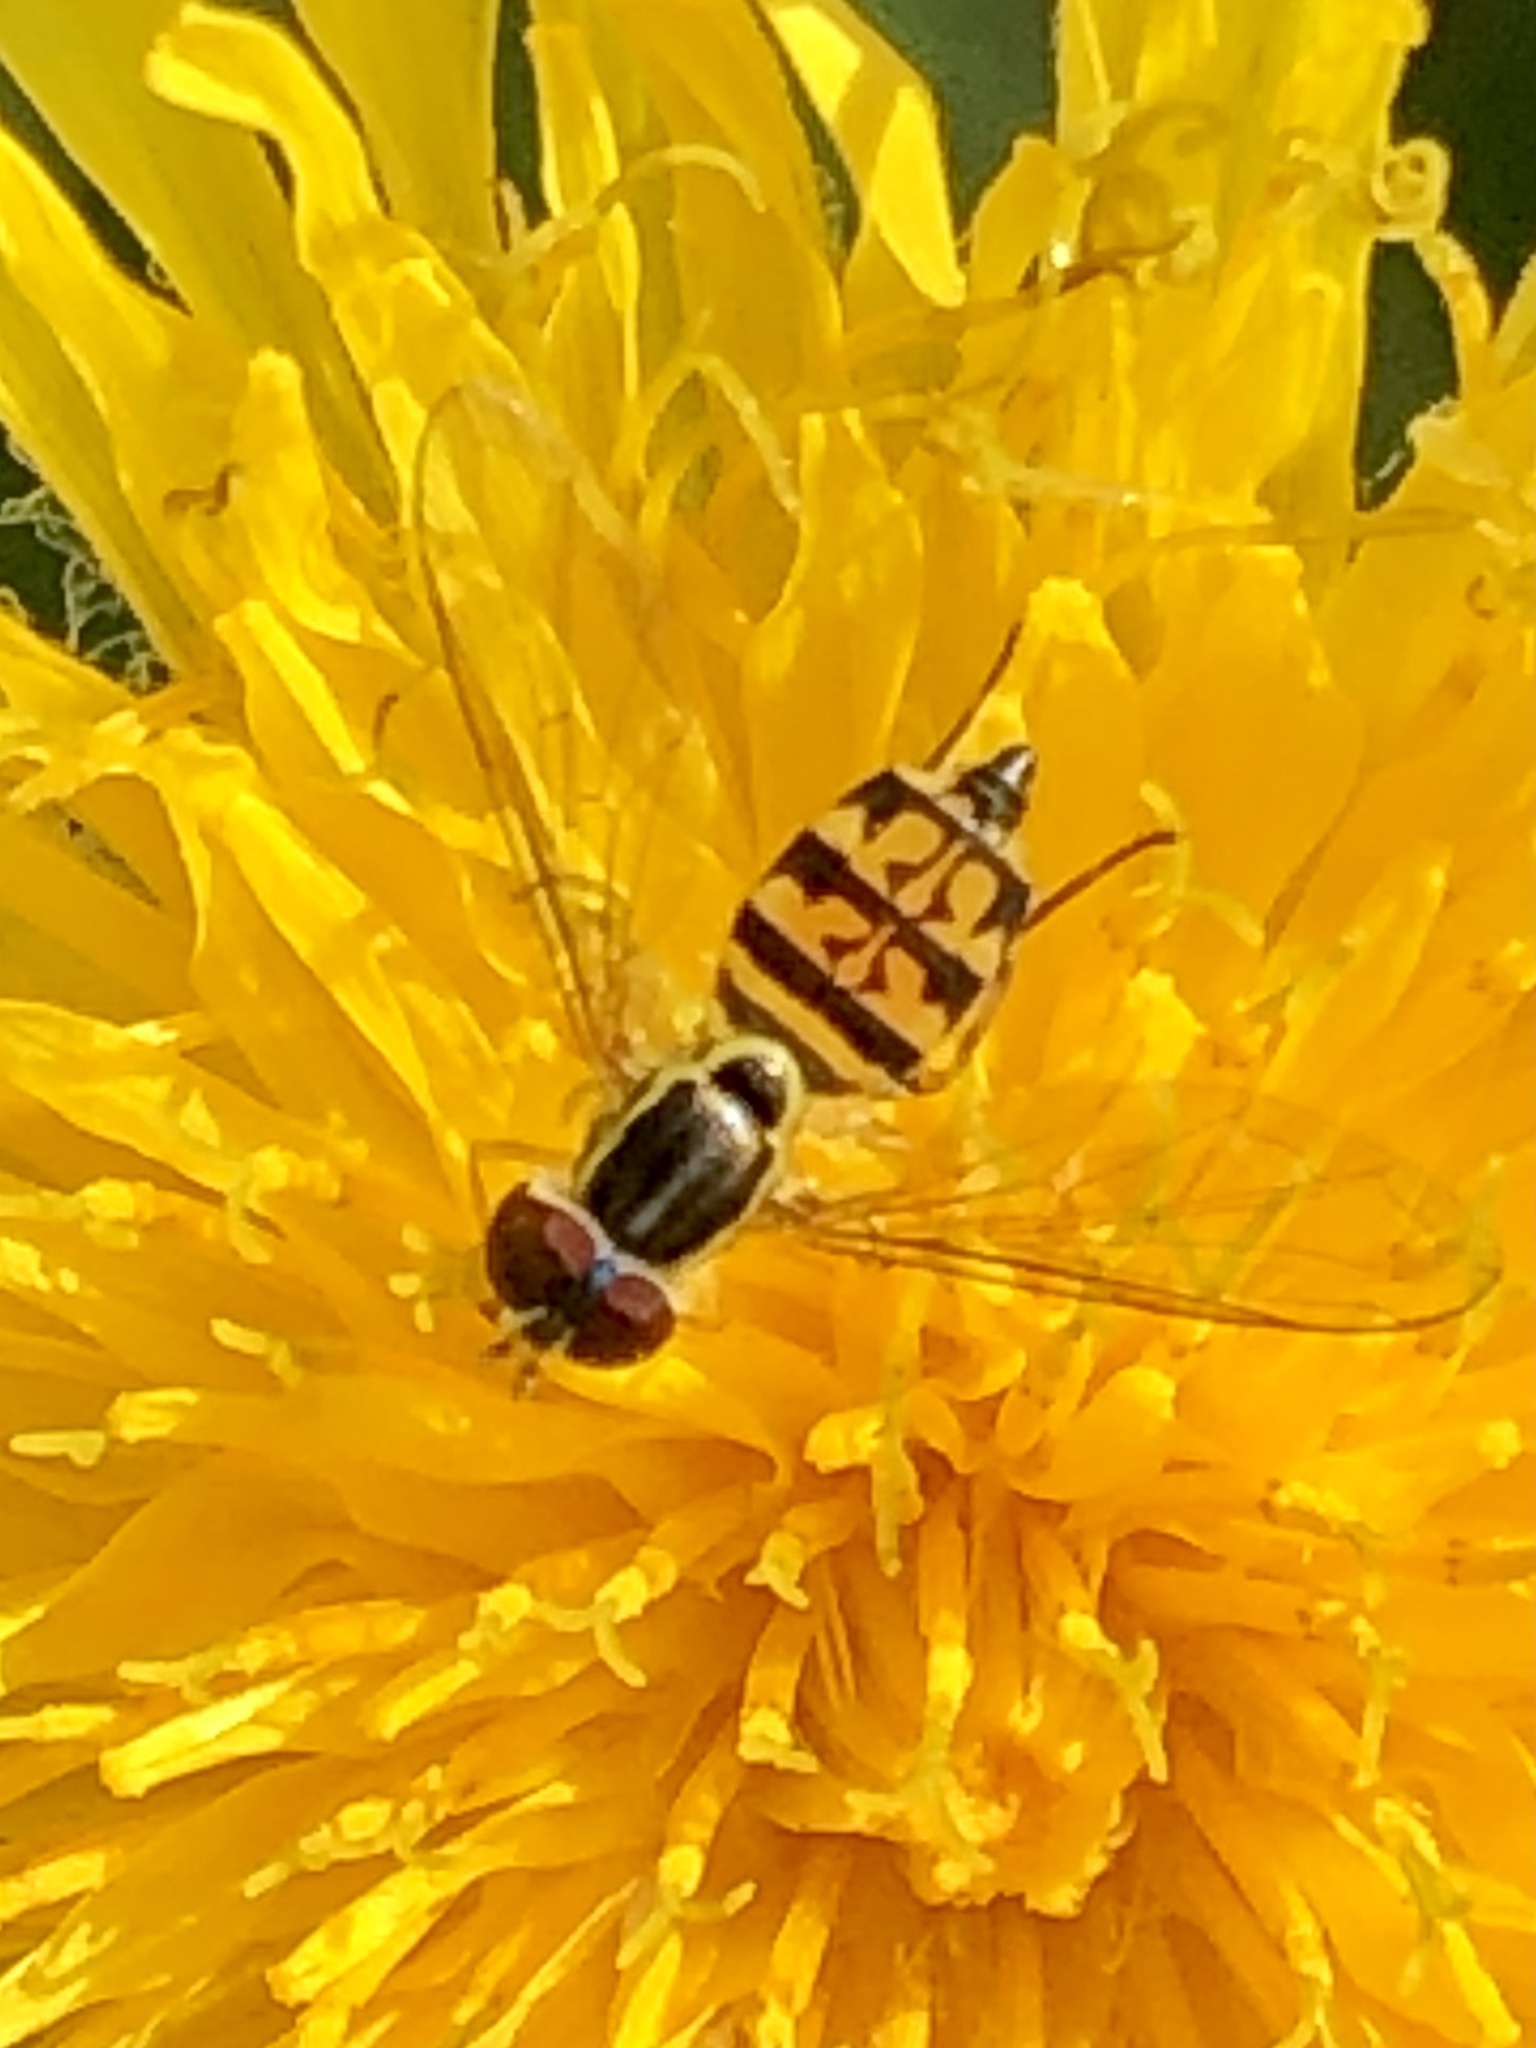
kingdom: Animalia
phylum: Arthropoda
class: Insecta
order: Diptera
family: Syrphidae
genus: Toxomerus
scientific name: Toxomerus geminatus
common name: Eastern calligrapher
